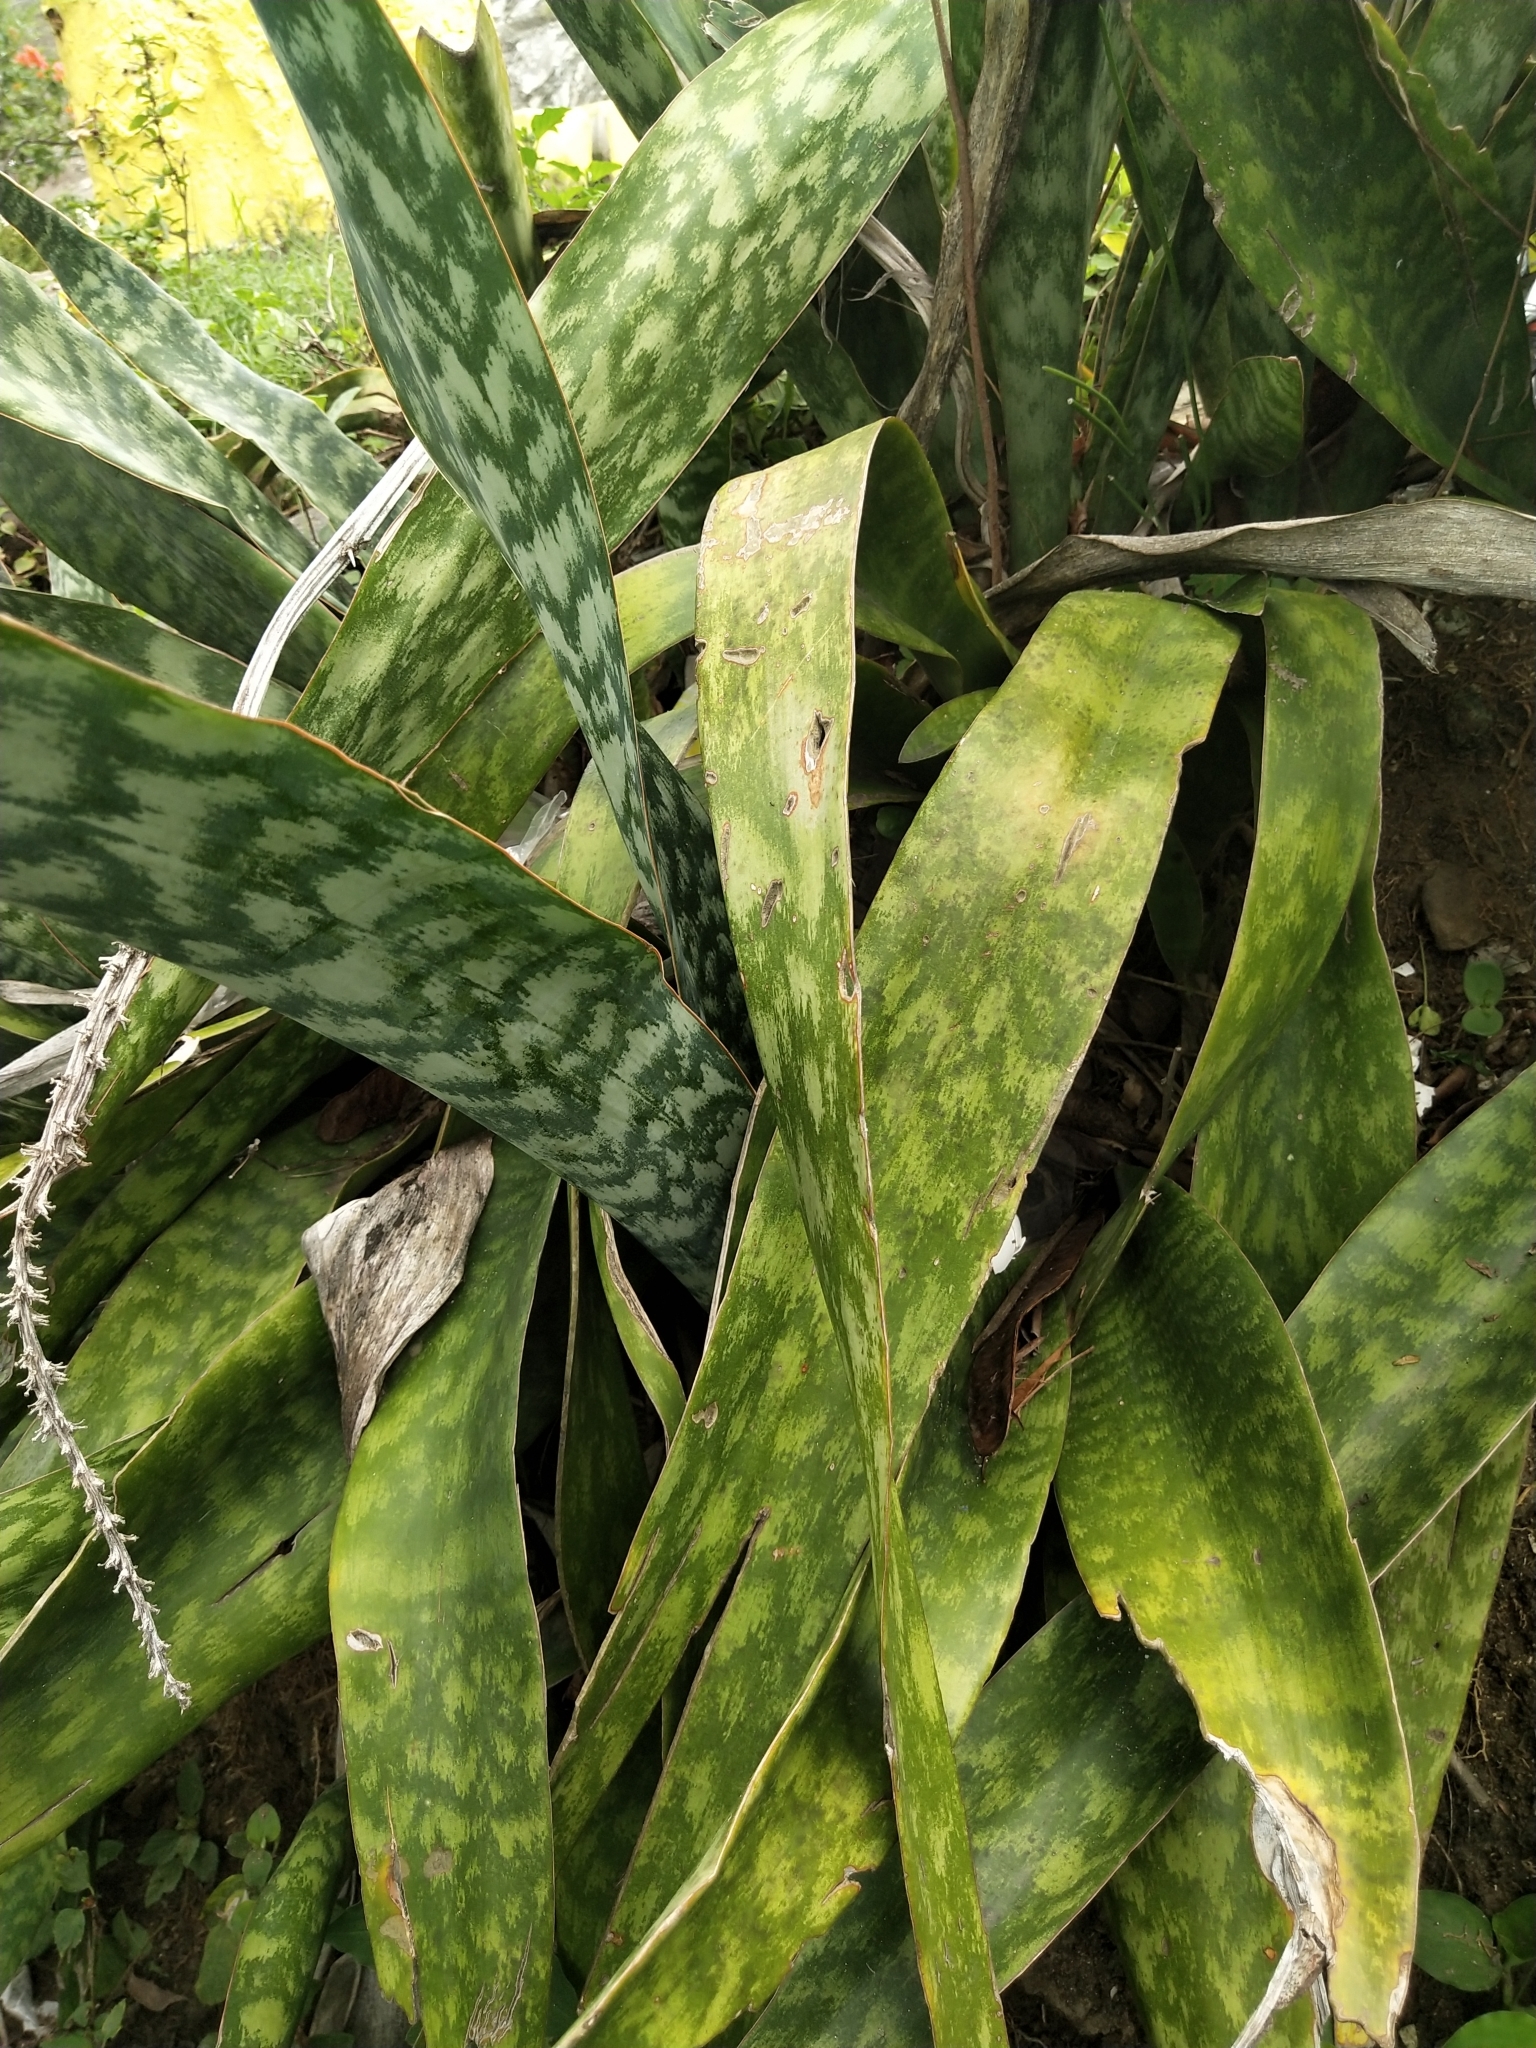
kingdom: Plantae
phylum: Tracheophyta
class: Liliopsida
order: Asparagales
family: Asparagaceae
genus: Dracaena
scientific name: Dracaena trifasciata
